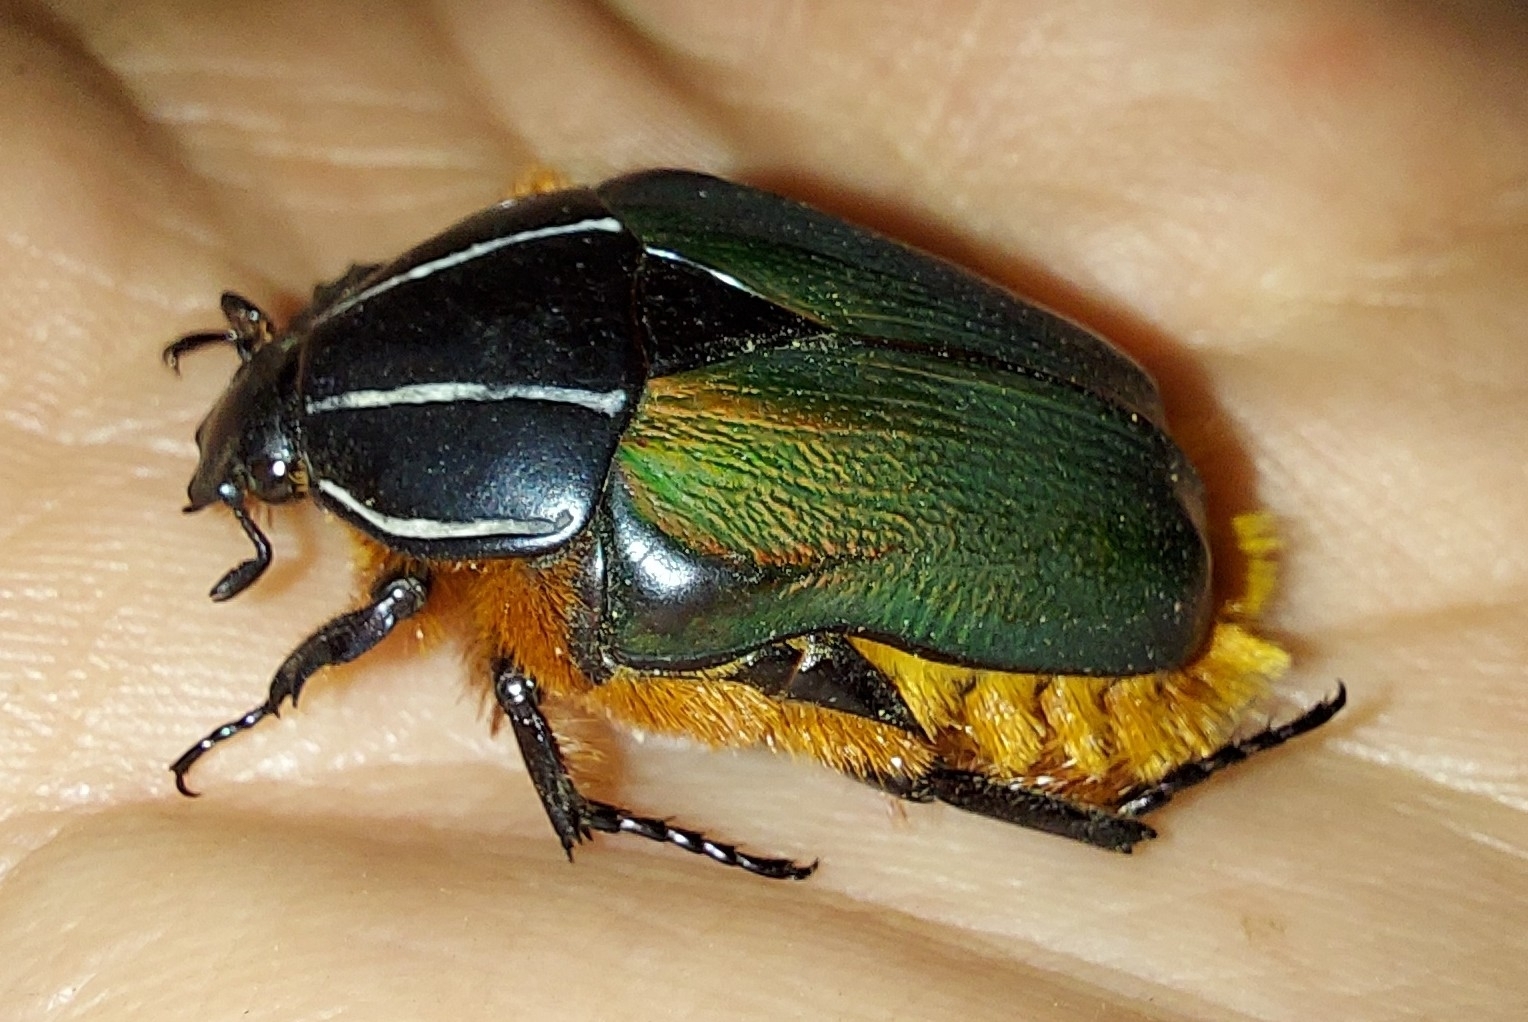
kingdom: Animalia
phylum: Arthropoda
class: Insecta
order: Coleoptera
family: Scarabaeidae
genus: Trichostetha
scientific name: Trichostetha fascicularis
